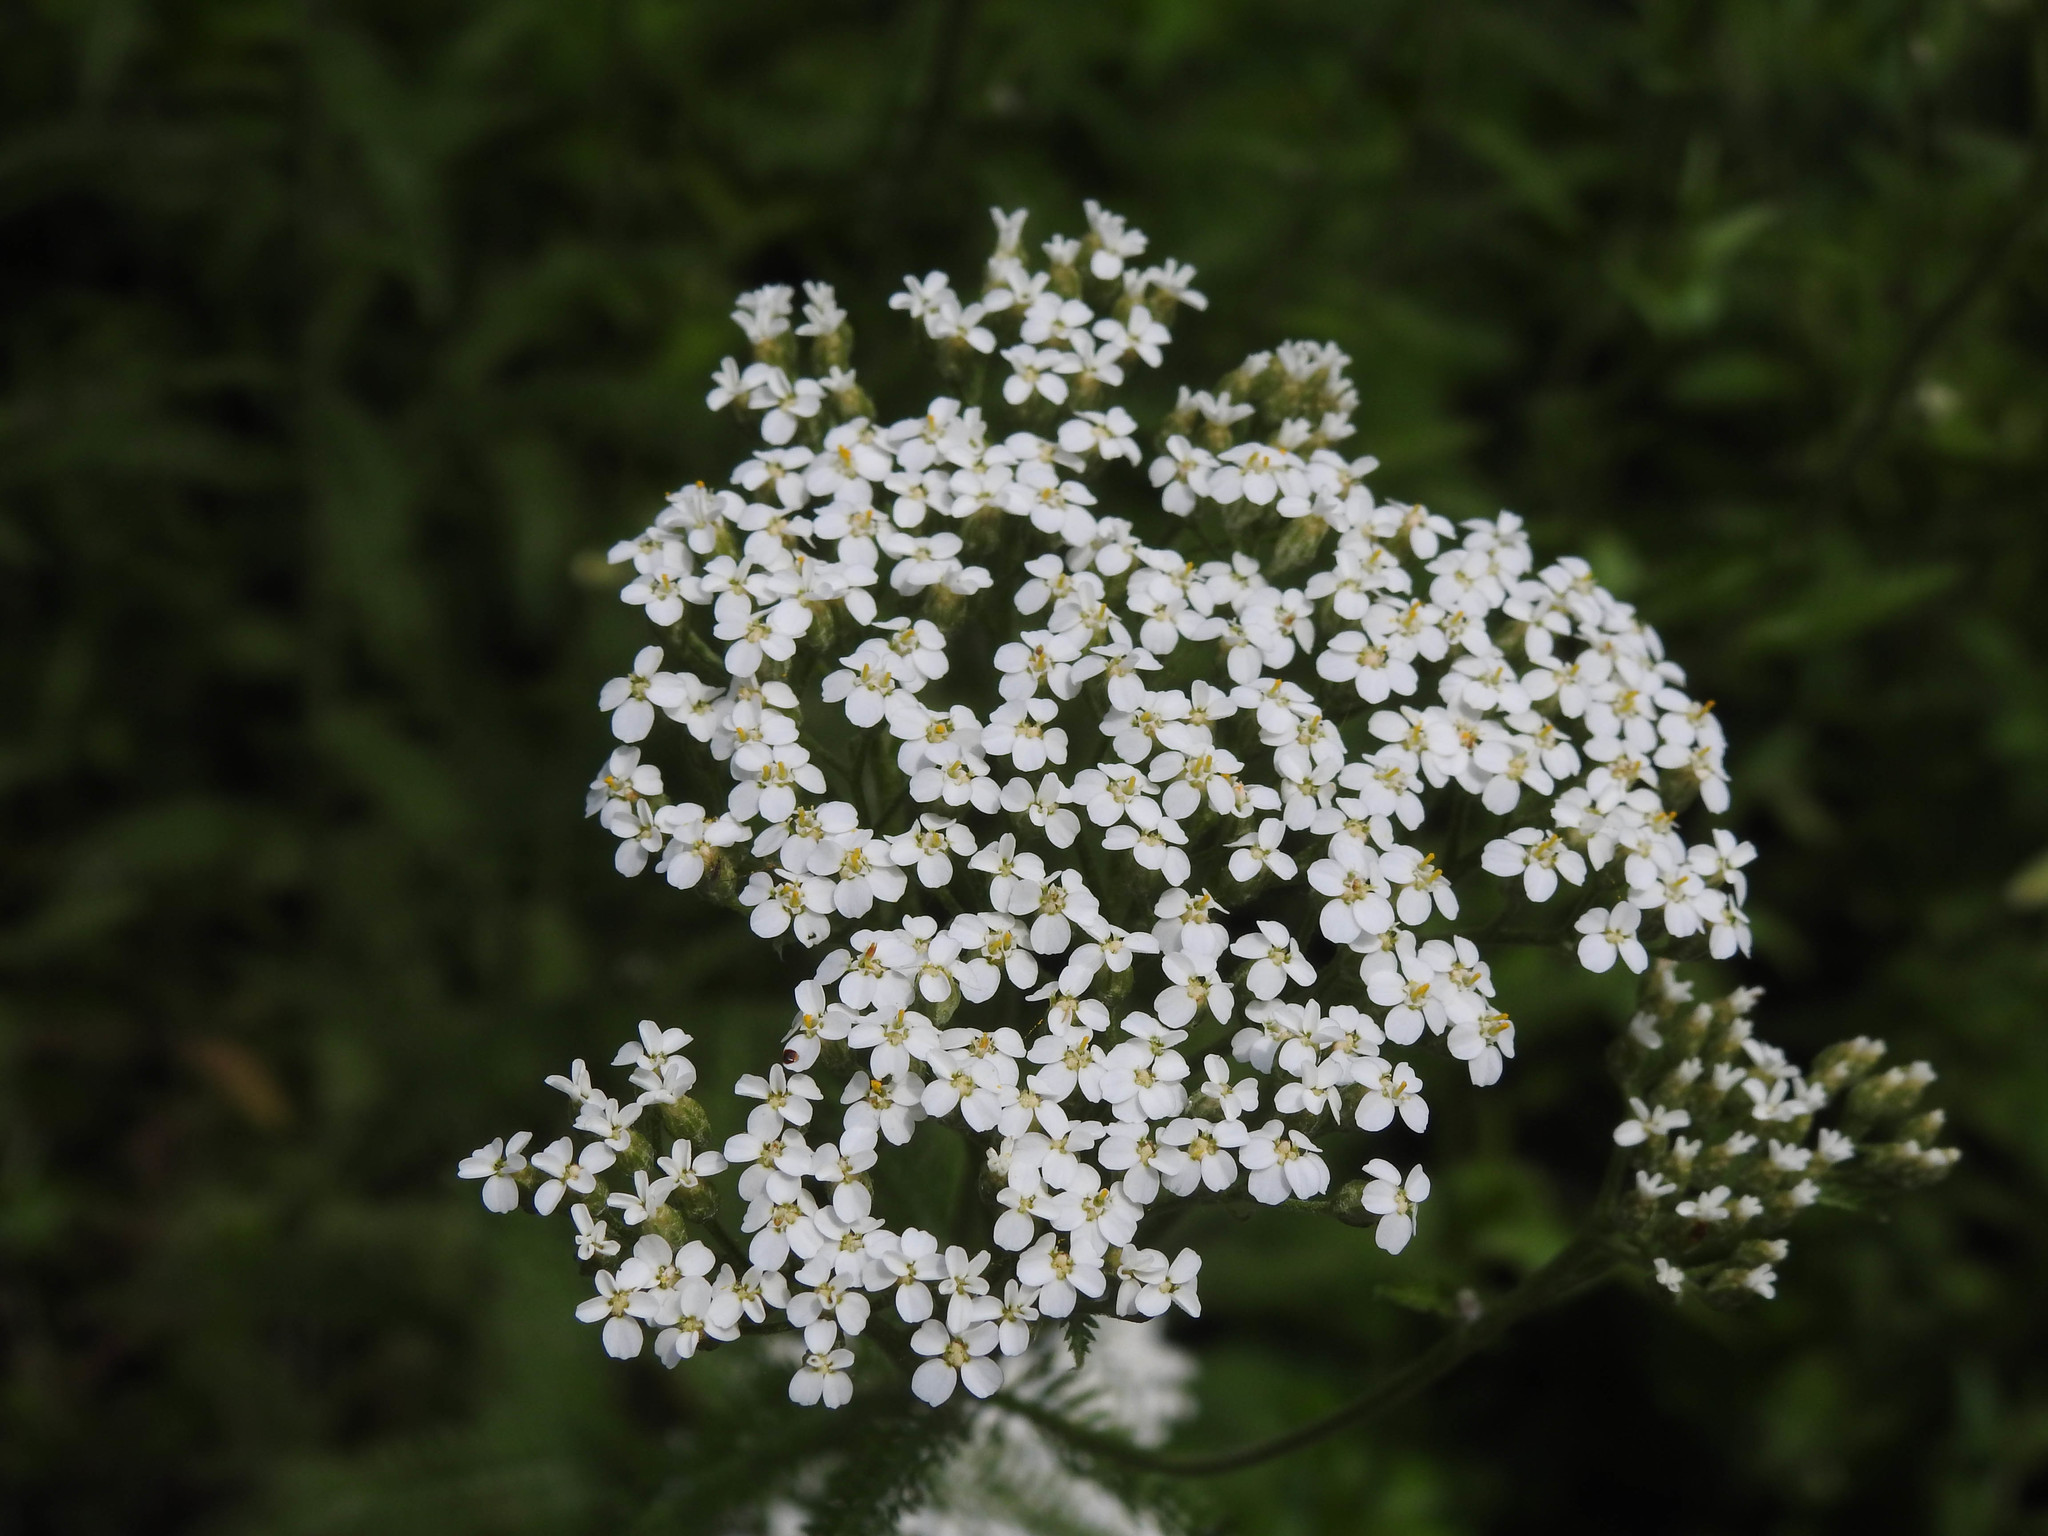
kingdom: Plantae
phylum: Tracheophyta
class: Magnoliopsida
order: Asterales
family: Asteraceae
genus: Achillea
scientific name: Achillea millefolium
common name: Yarrow
